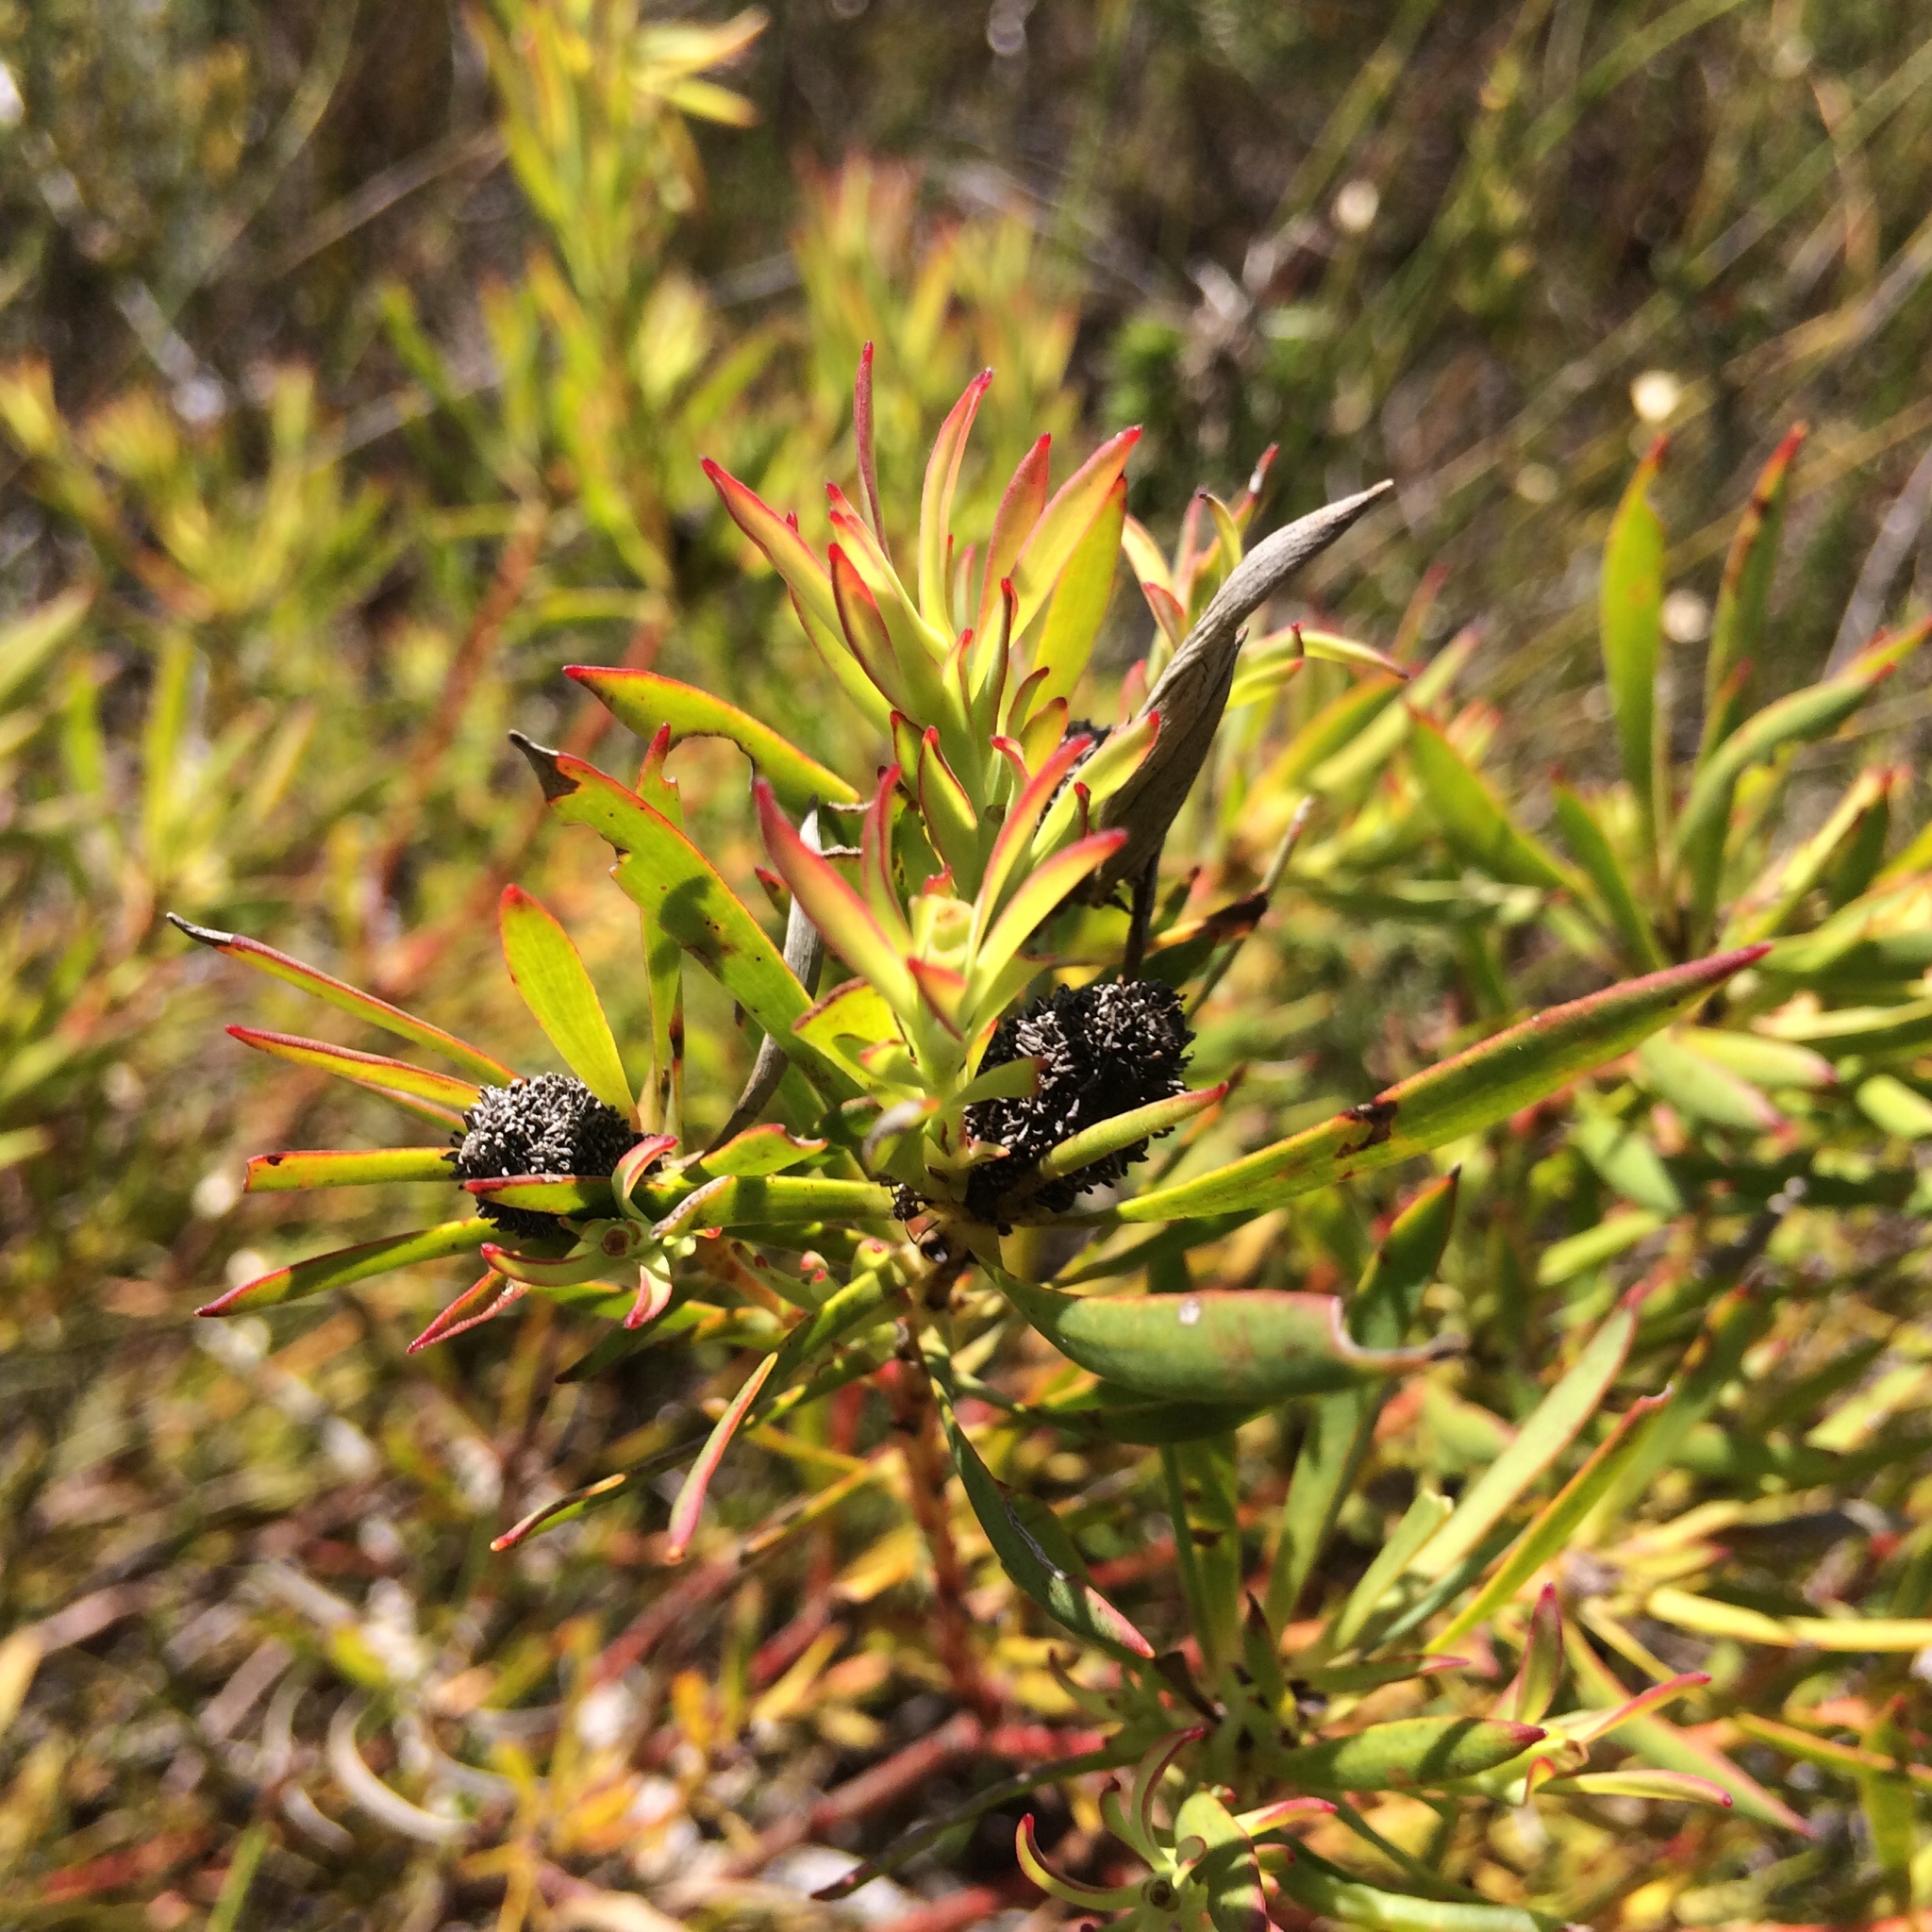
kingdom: Plantae
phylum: Tracheophyta
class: Magnoliopsida
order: Proteales
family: Proteaceae
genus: Leucadendron
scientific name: Leucadendron salignum
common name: Common sunshine conebush
